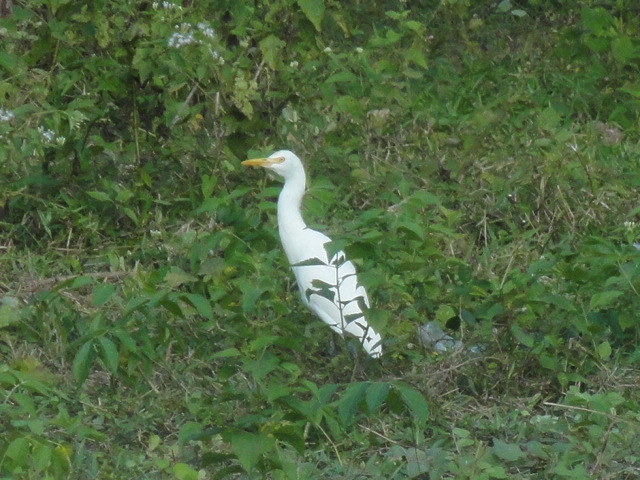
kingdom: Animalia
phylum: Chordata
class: Aves
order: Pelecaniformes
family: Ardeidae
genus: Bubulcus
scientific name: Bubulcus coromandus
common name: Eastern cattle egret
